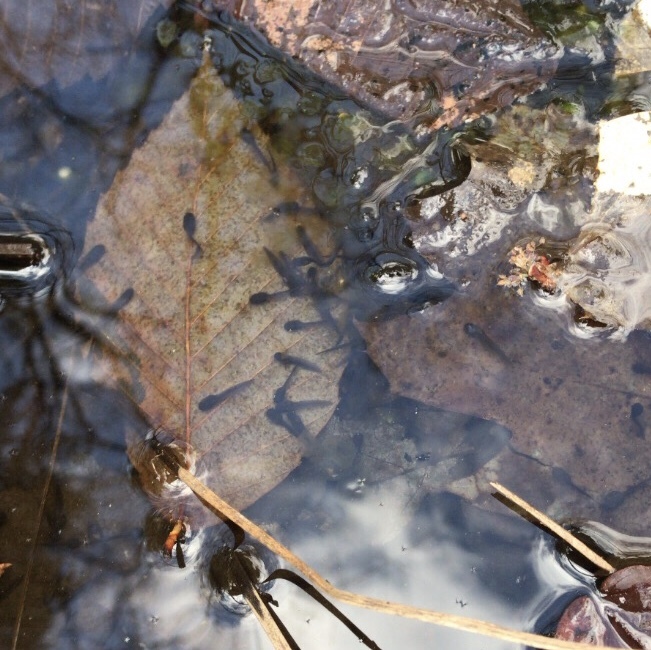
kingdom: Animalia
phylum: Chordata
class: Amphibia
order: Anura
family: Ranidae
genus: Lithobates
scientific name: Lithobates sylvaticus
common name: Wood frog
